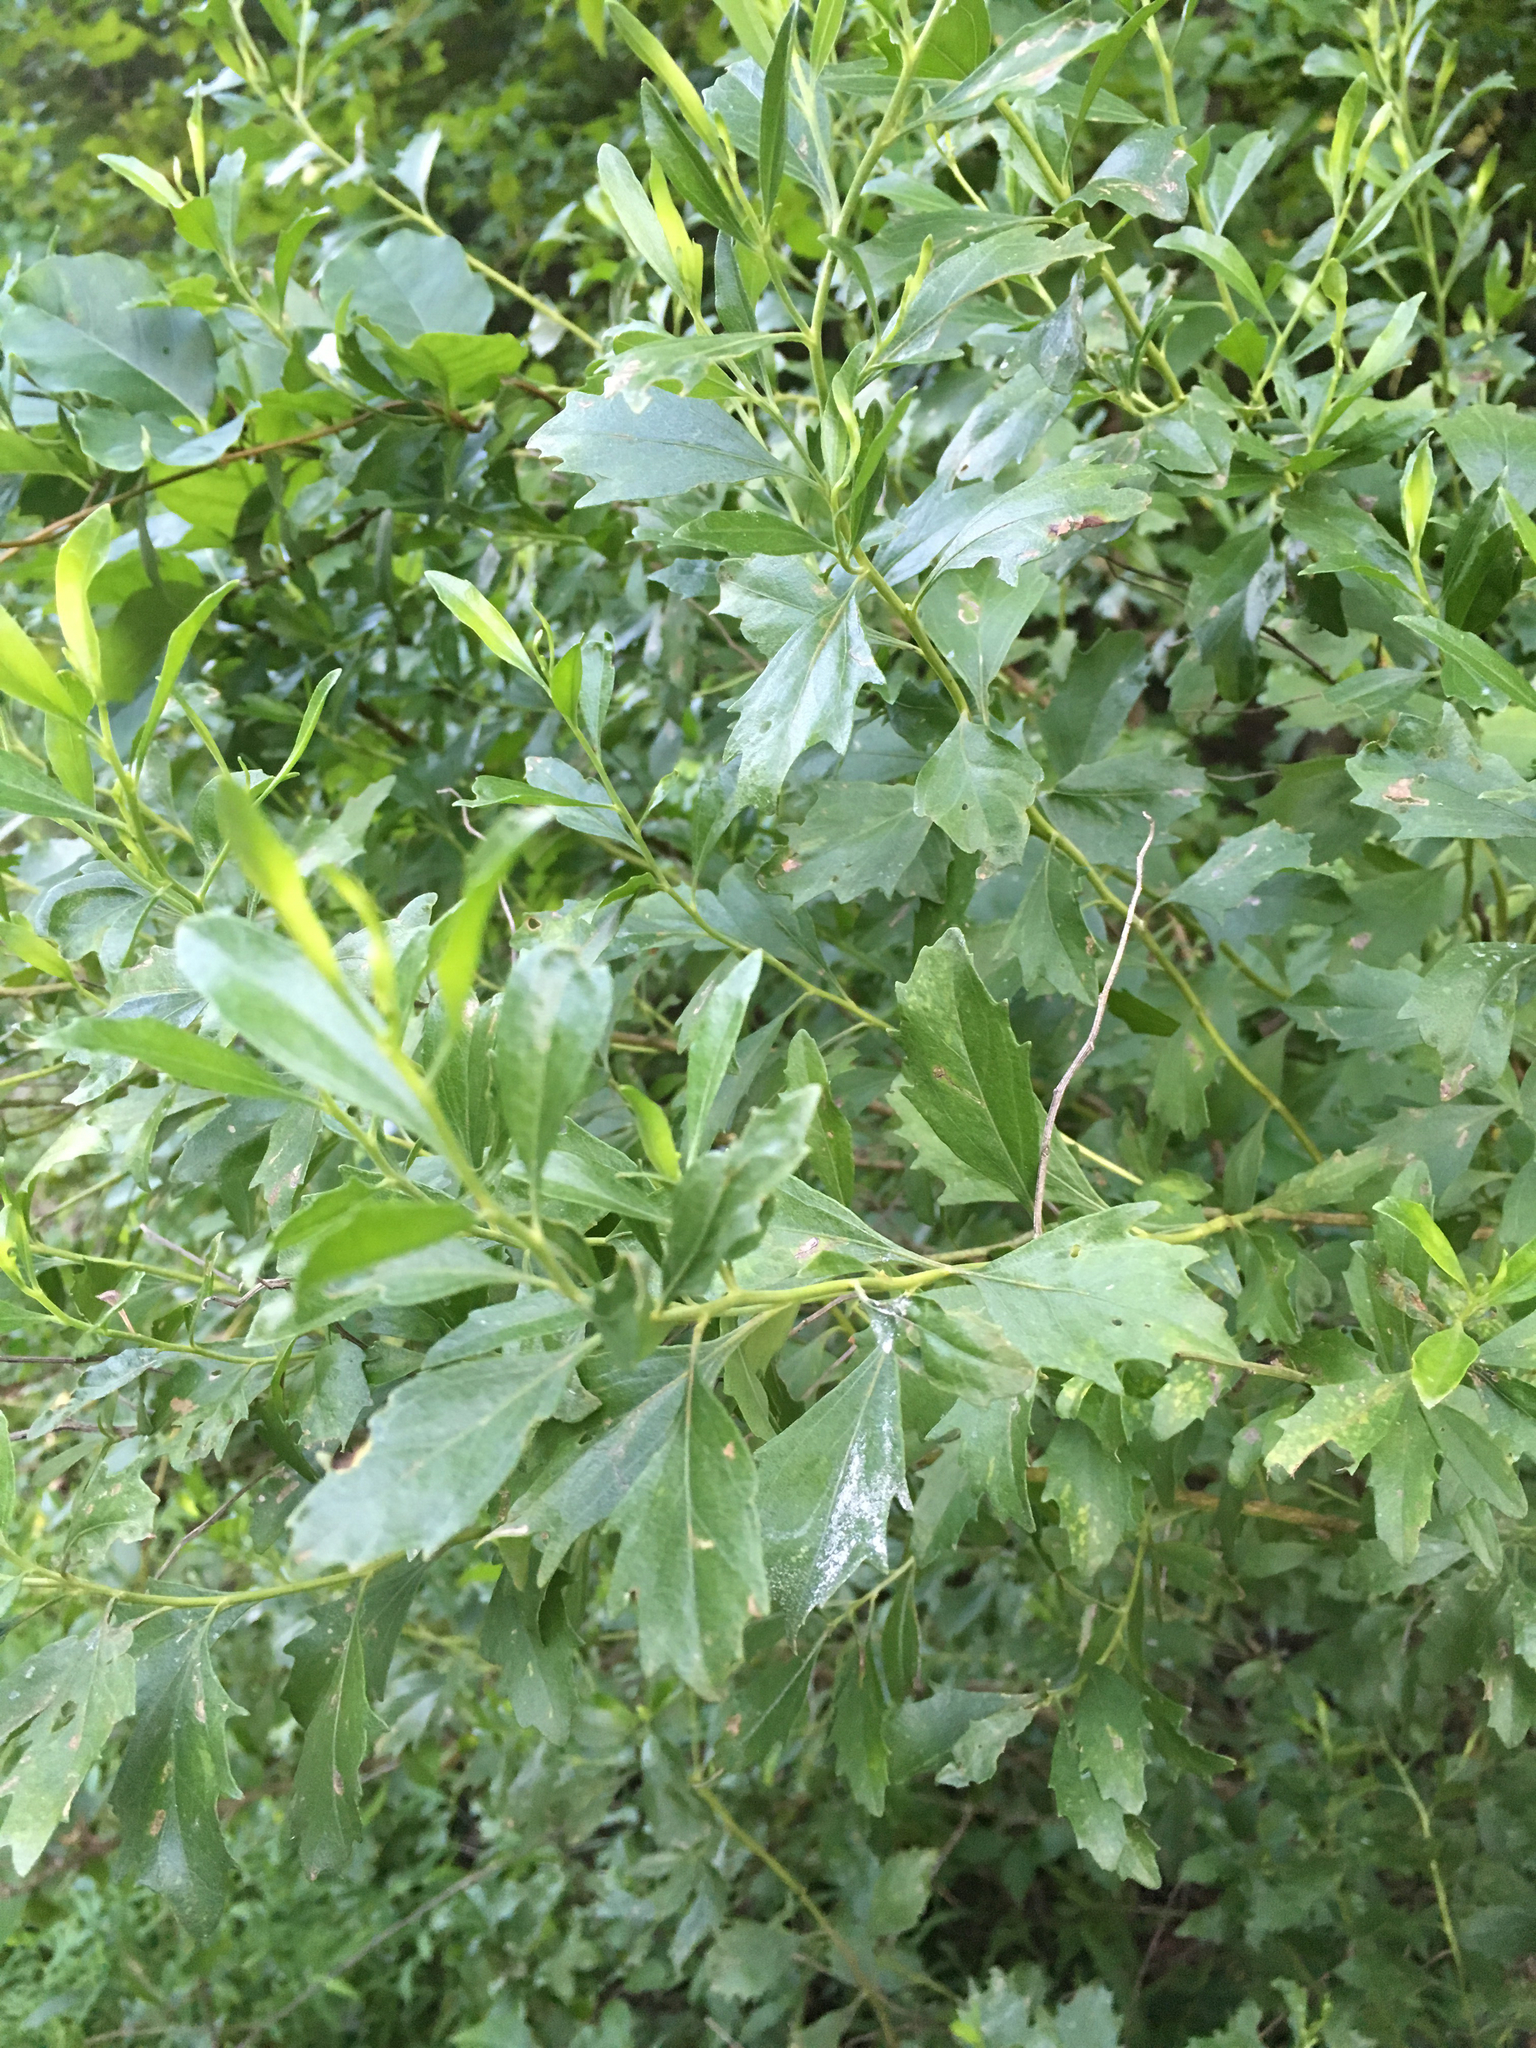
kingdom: Plantae
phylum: Tracheophyta
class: Magnoliopsida
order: Asterales
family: Asteraceae
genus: Baccharis
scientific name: Baccharis halimifolia
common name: Eastern baccharis
